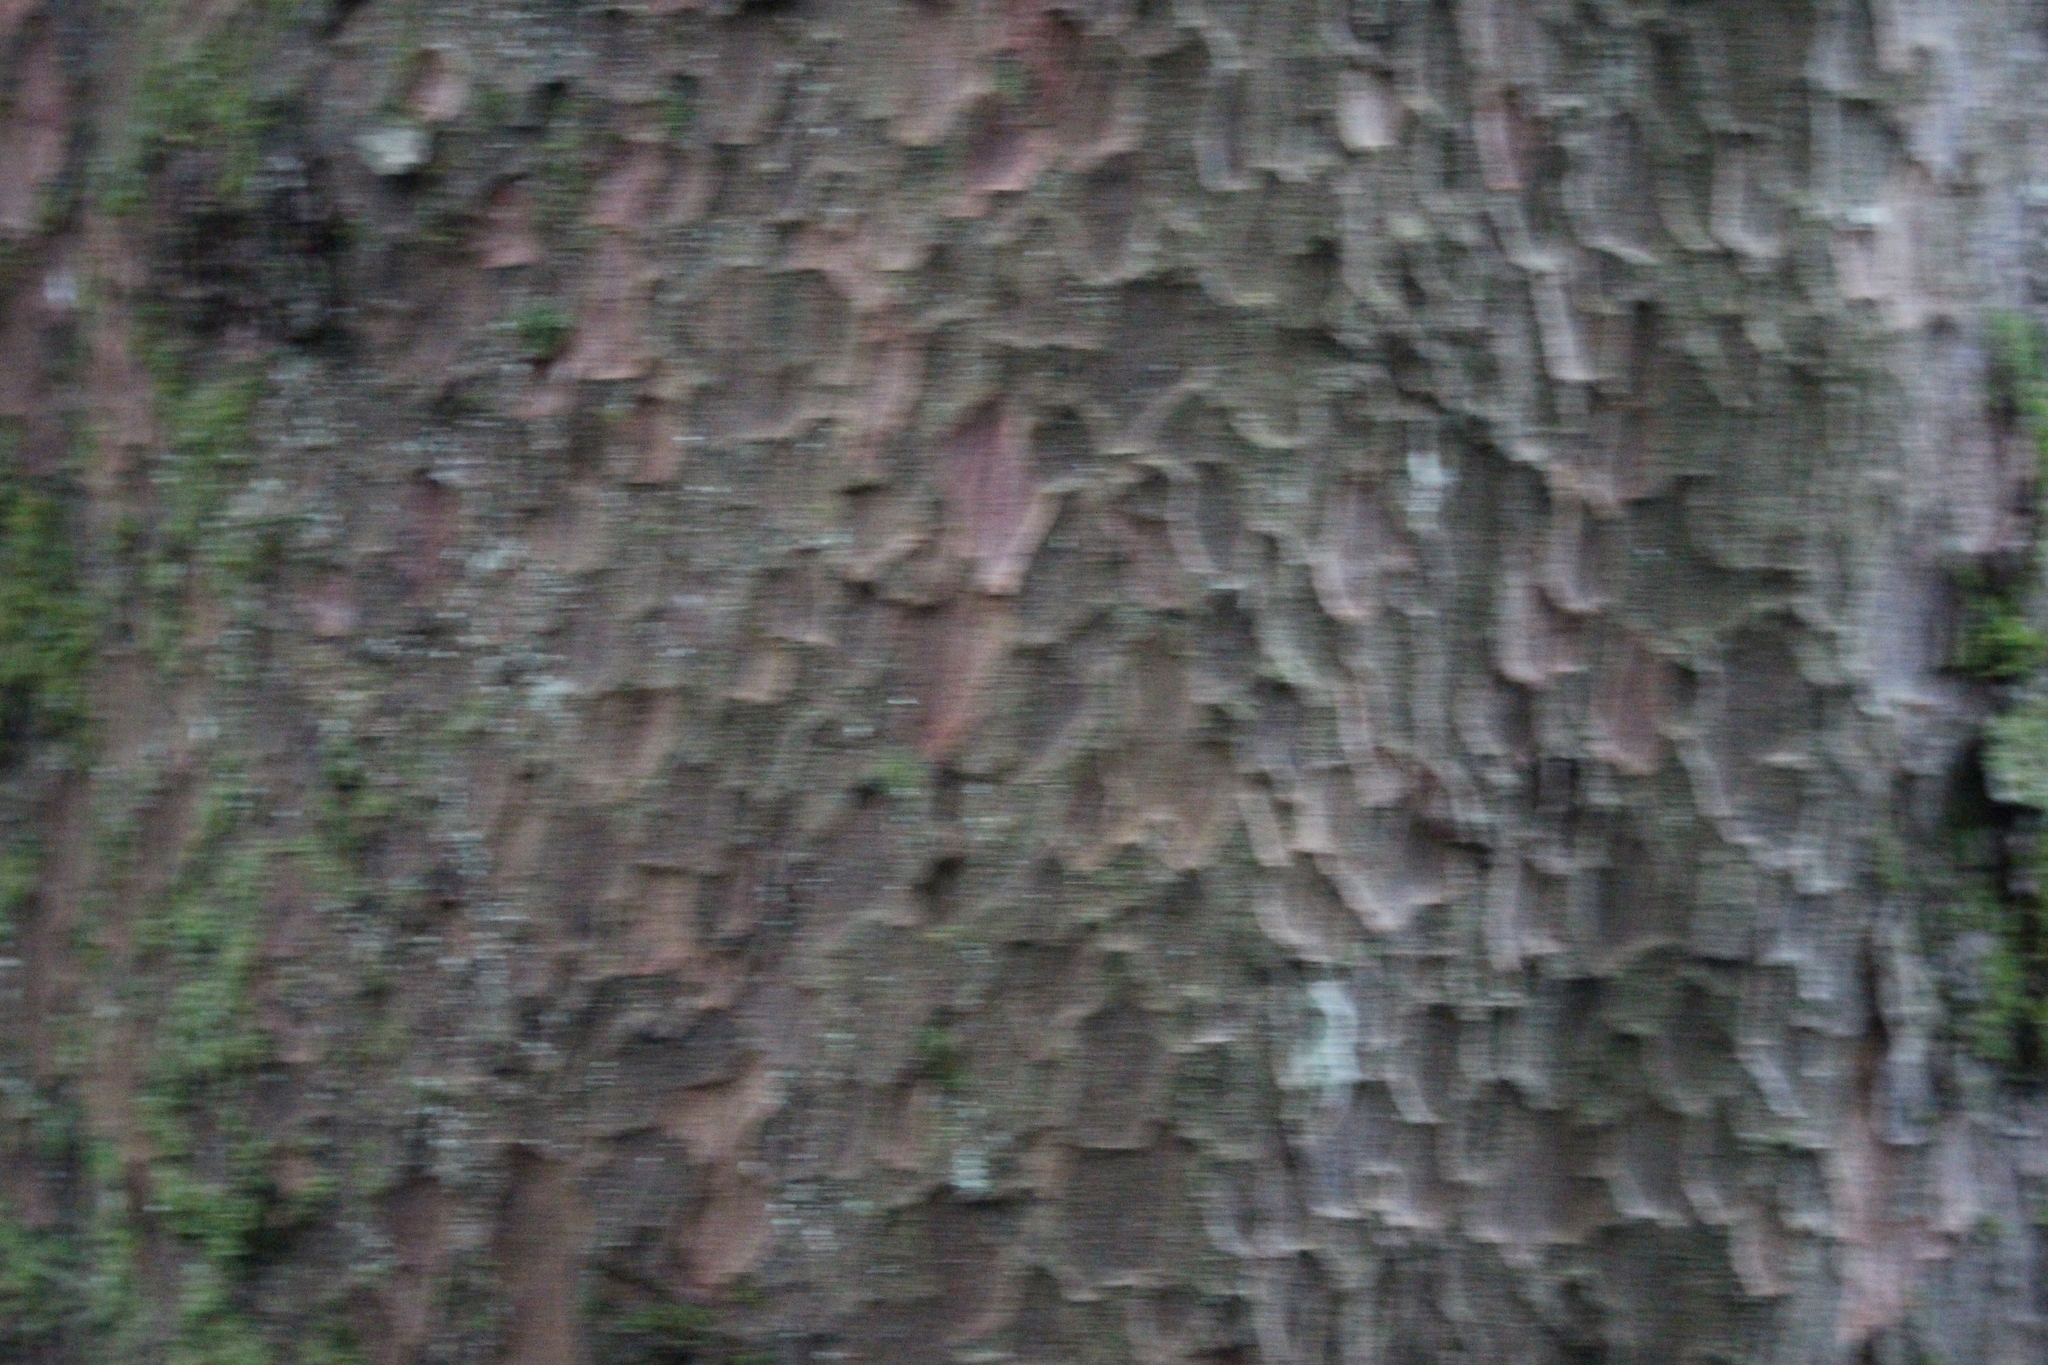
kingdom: Plantae
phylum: Tracheophyta
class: Pinopsida
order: Pinales
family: Podocarpaceae
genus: Prumnopitys
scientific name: Prumnopitys taxifolia
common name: Matai
